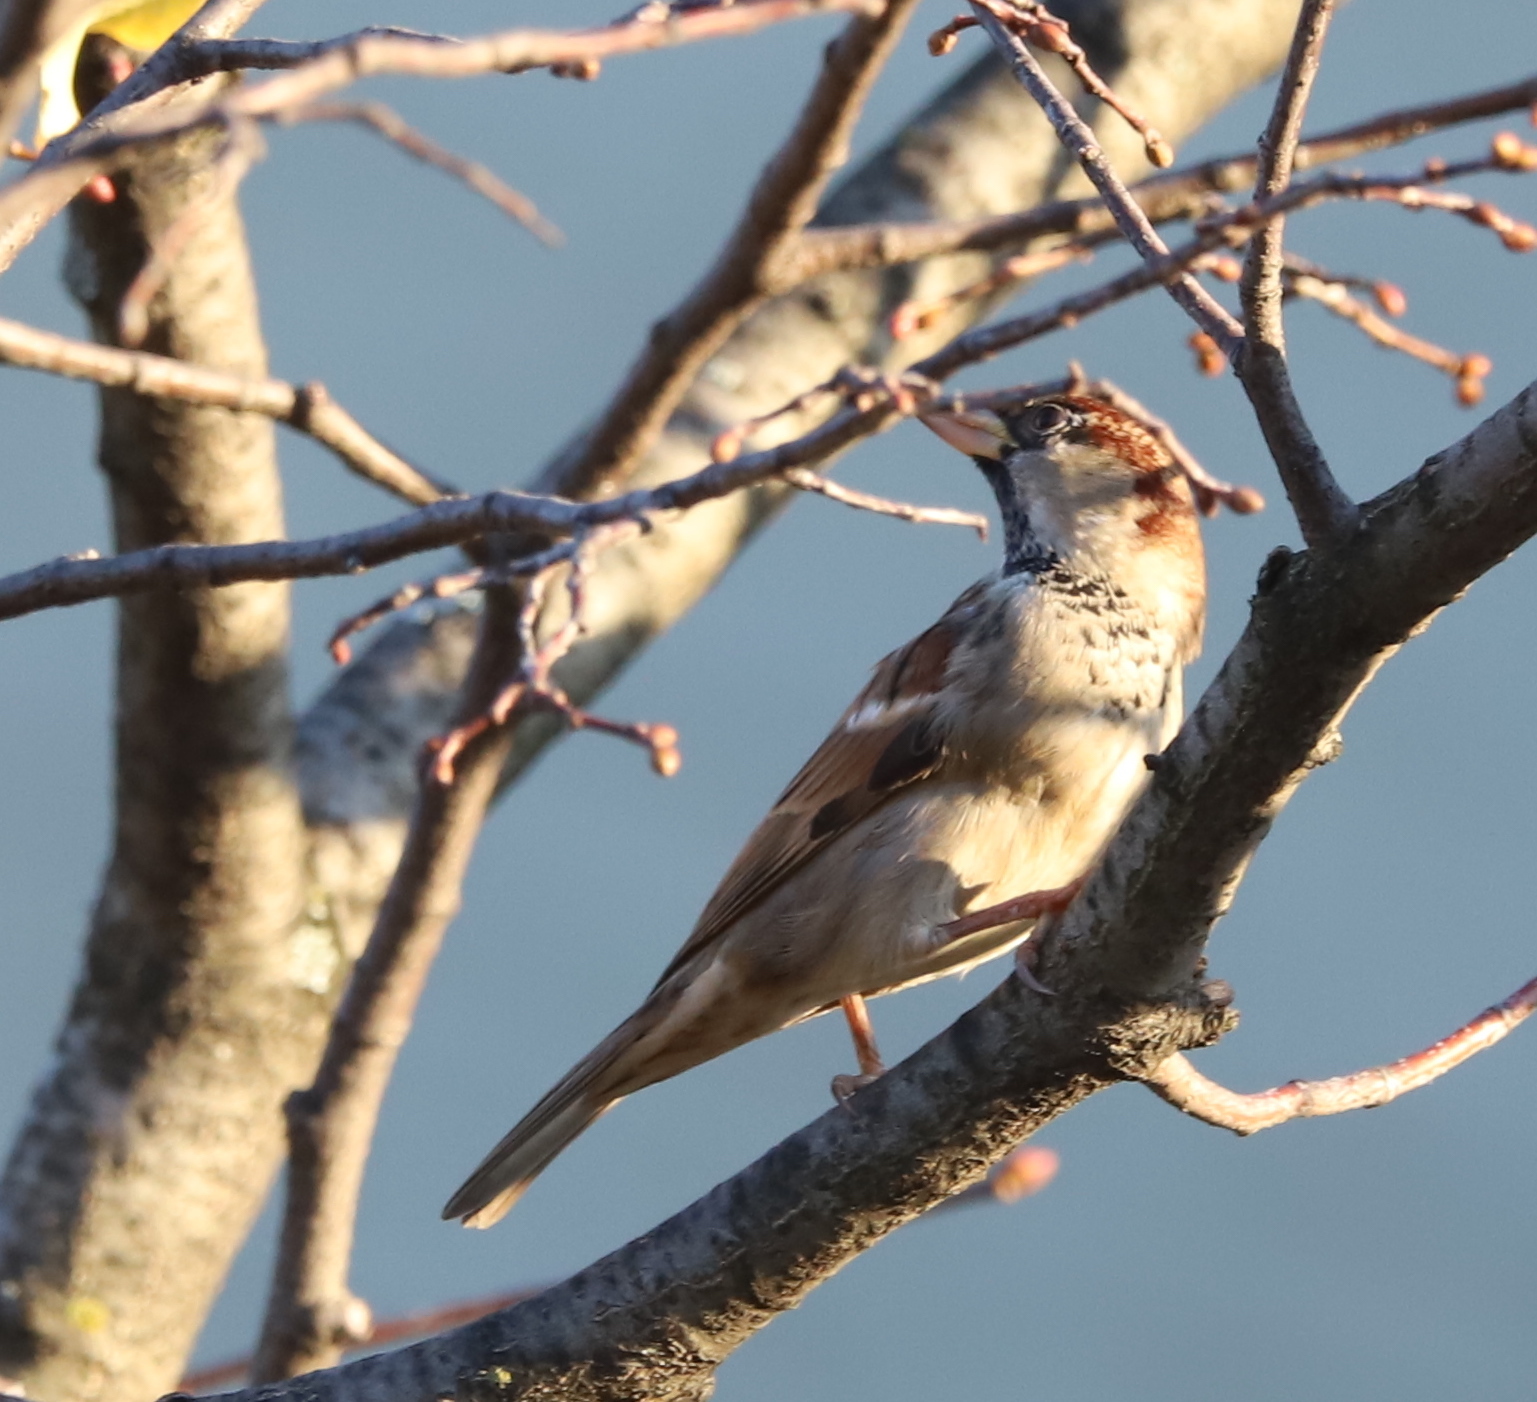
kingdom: Animalia
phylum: Chordata
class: Aves
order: Passeriformes
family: Passeridae
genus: Passer
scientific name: Passer domesticus
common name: House sparrow
